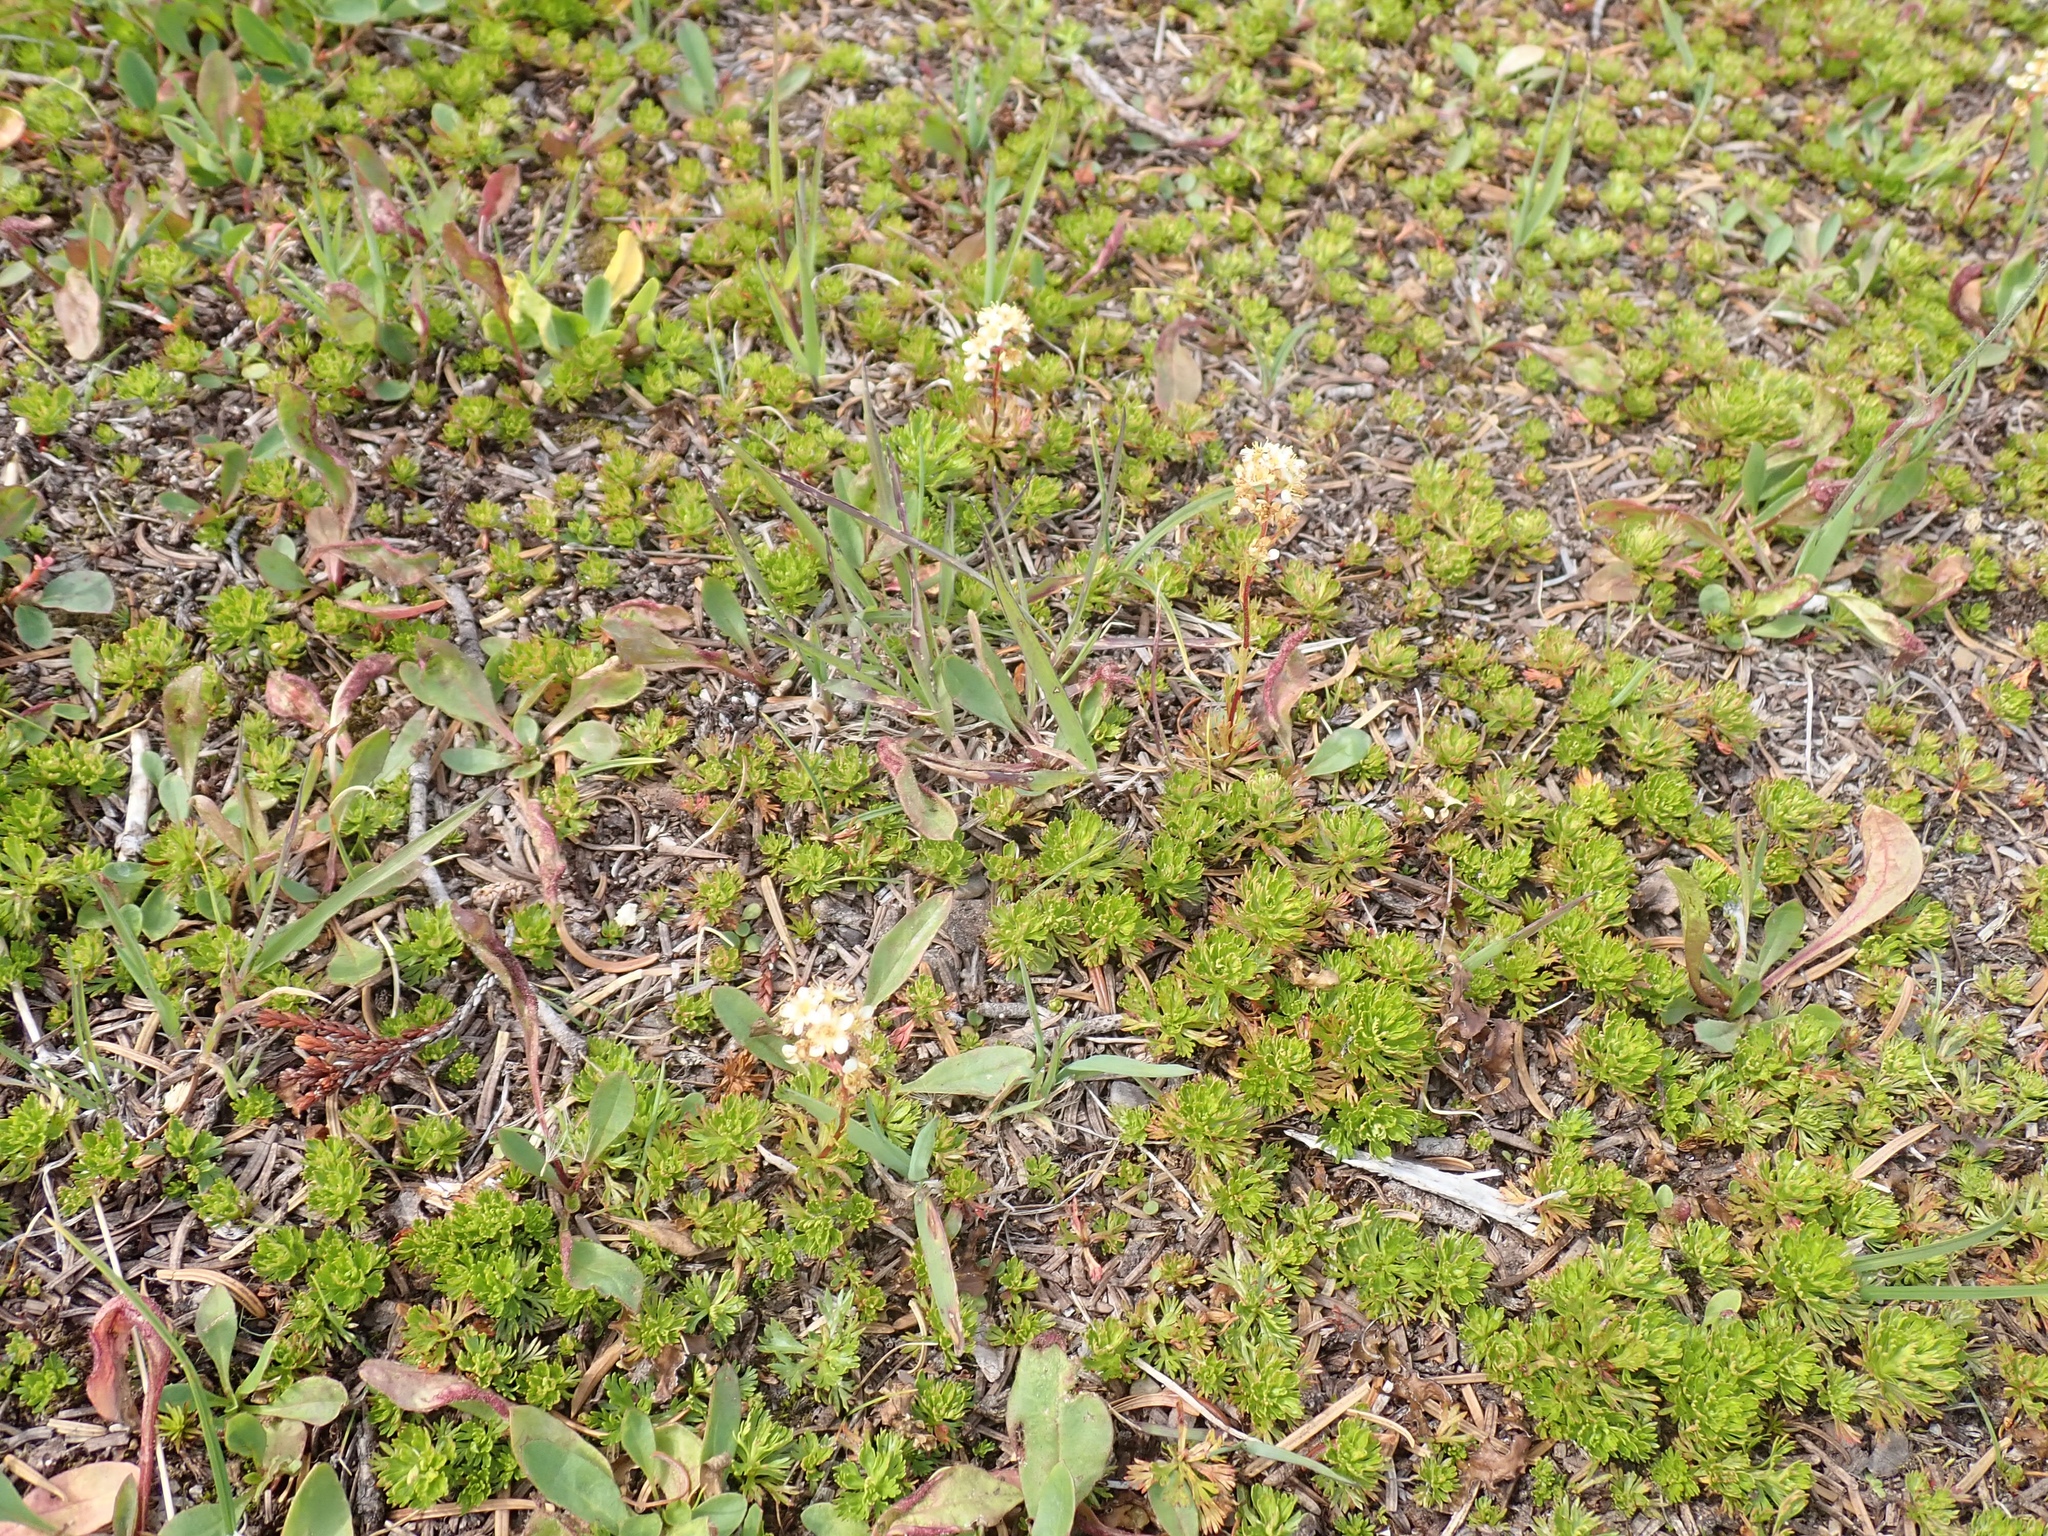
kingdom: Plantae
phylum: Tracheophyta
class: Magnoliopsida
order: Rosales
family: Rosaceae
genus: Luetkea
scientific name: Luetkea pectinata
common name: Partridgefoot
